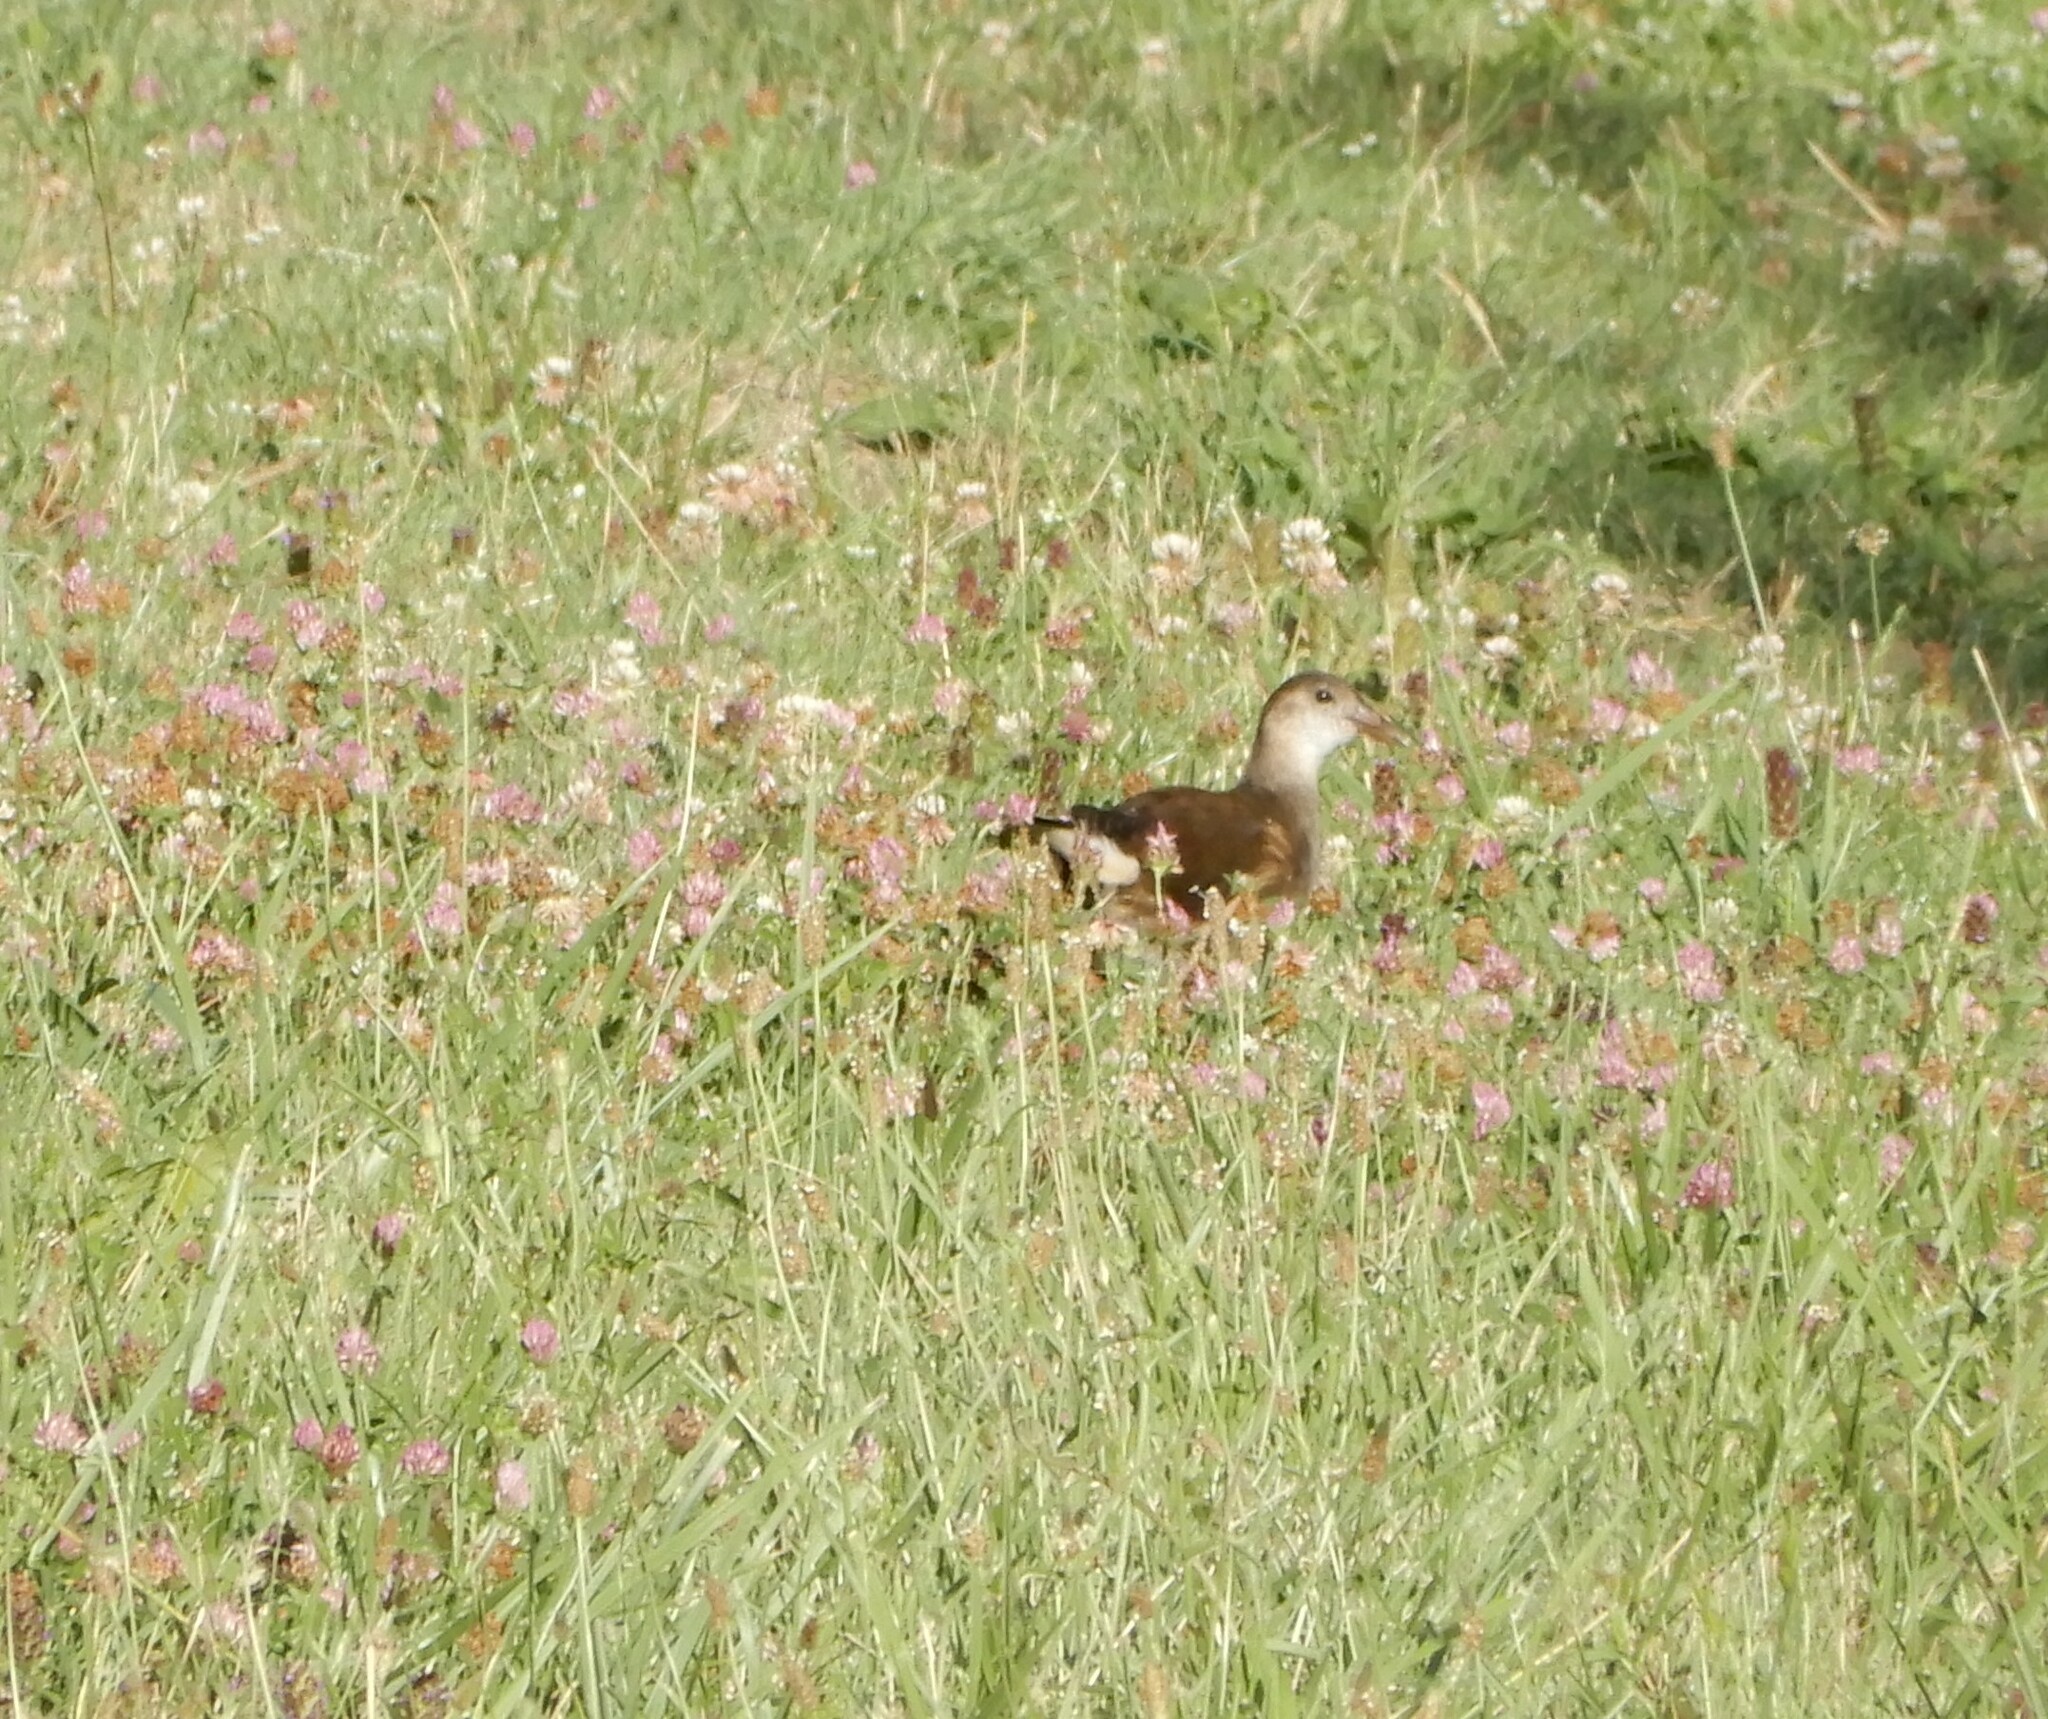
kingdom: Animalia
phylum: Chordata
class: Aves
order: Gruiformes
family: Rallidae
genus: Gallinula
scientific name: Gallinula chloropus
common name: Common moorhen
